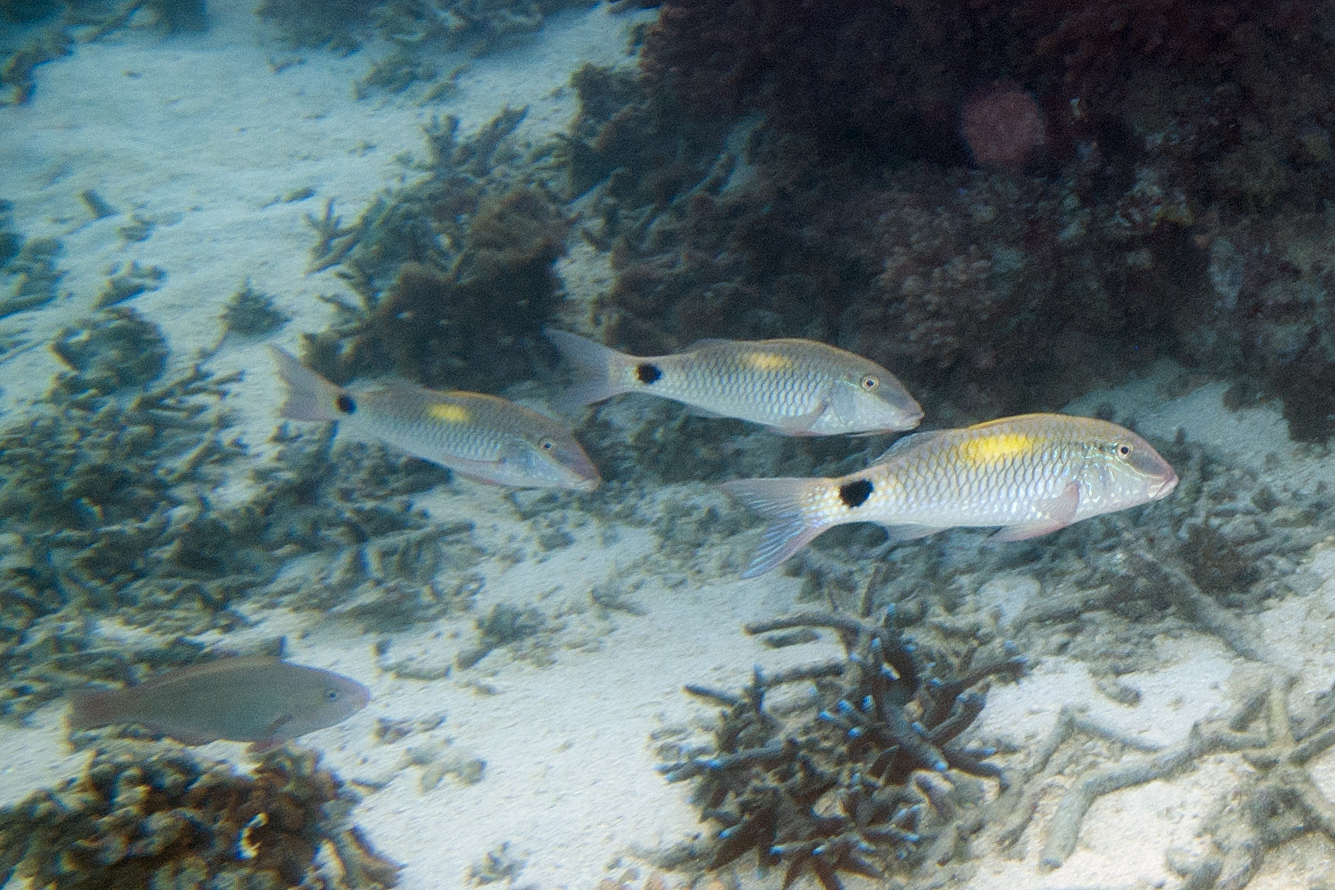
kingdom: Animalia
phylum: Chordata
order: Perciformes
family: Mullidae
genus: Parupeneus
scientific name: Parupeneus indicus
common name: Indian goatfish
